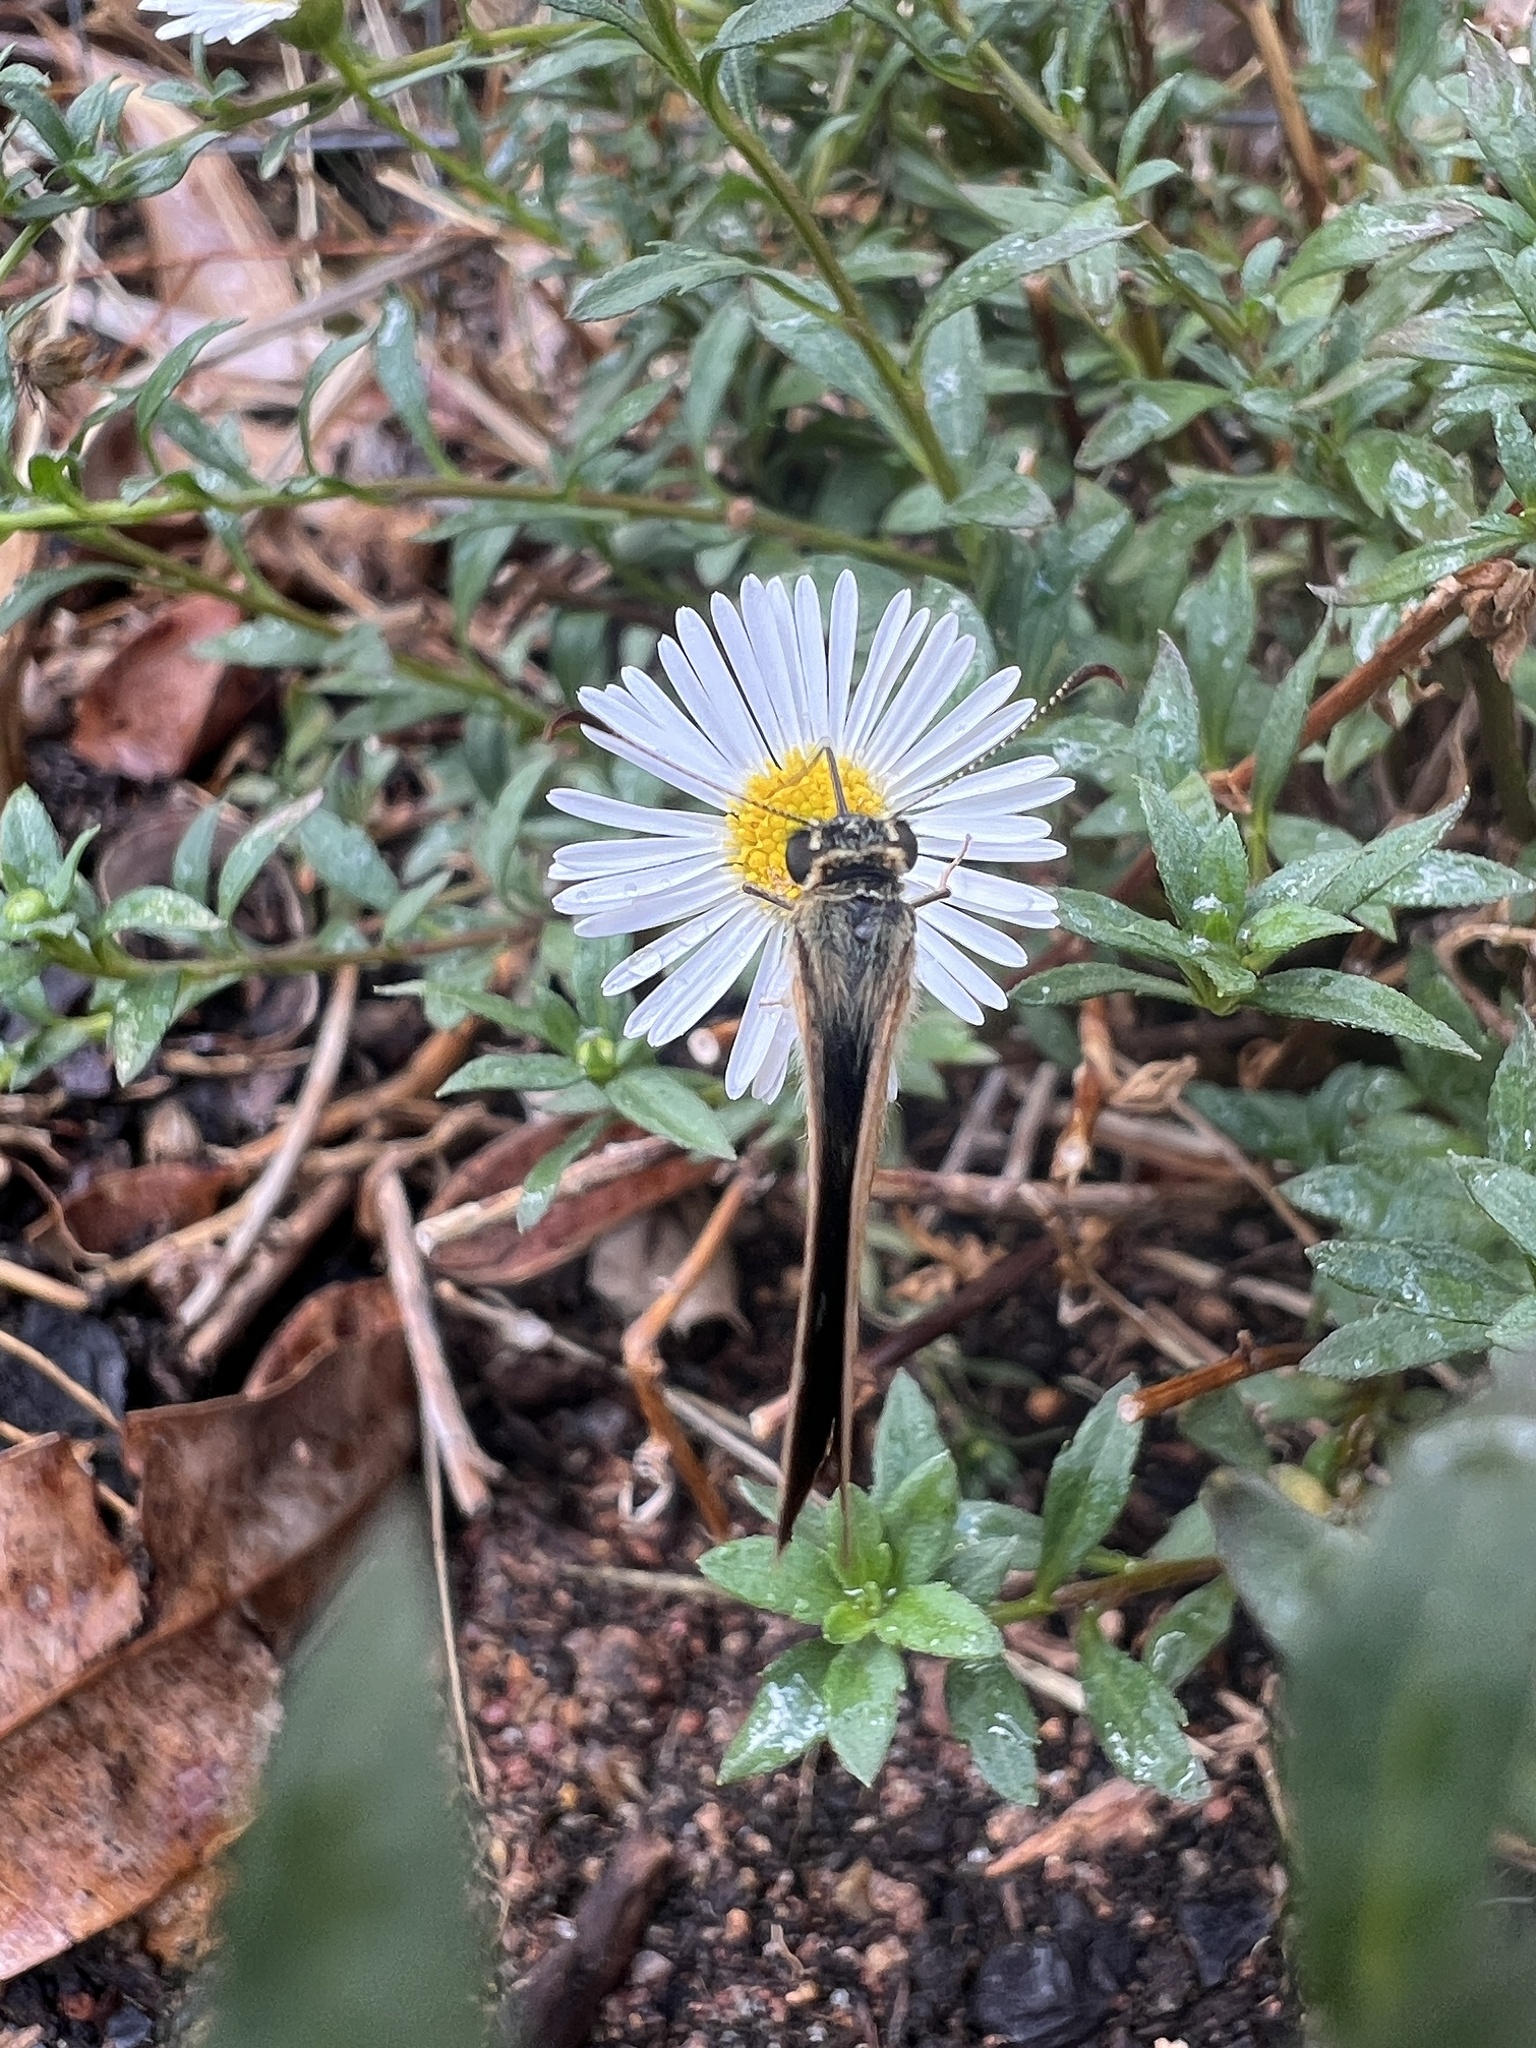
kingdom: Animalia
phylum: Arthropoda
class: Insecta
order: Lepidoptera
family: Hesperiidae
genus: Anisynta
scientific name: Anisynta sphenosema
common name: Wedge grass-skipper
